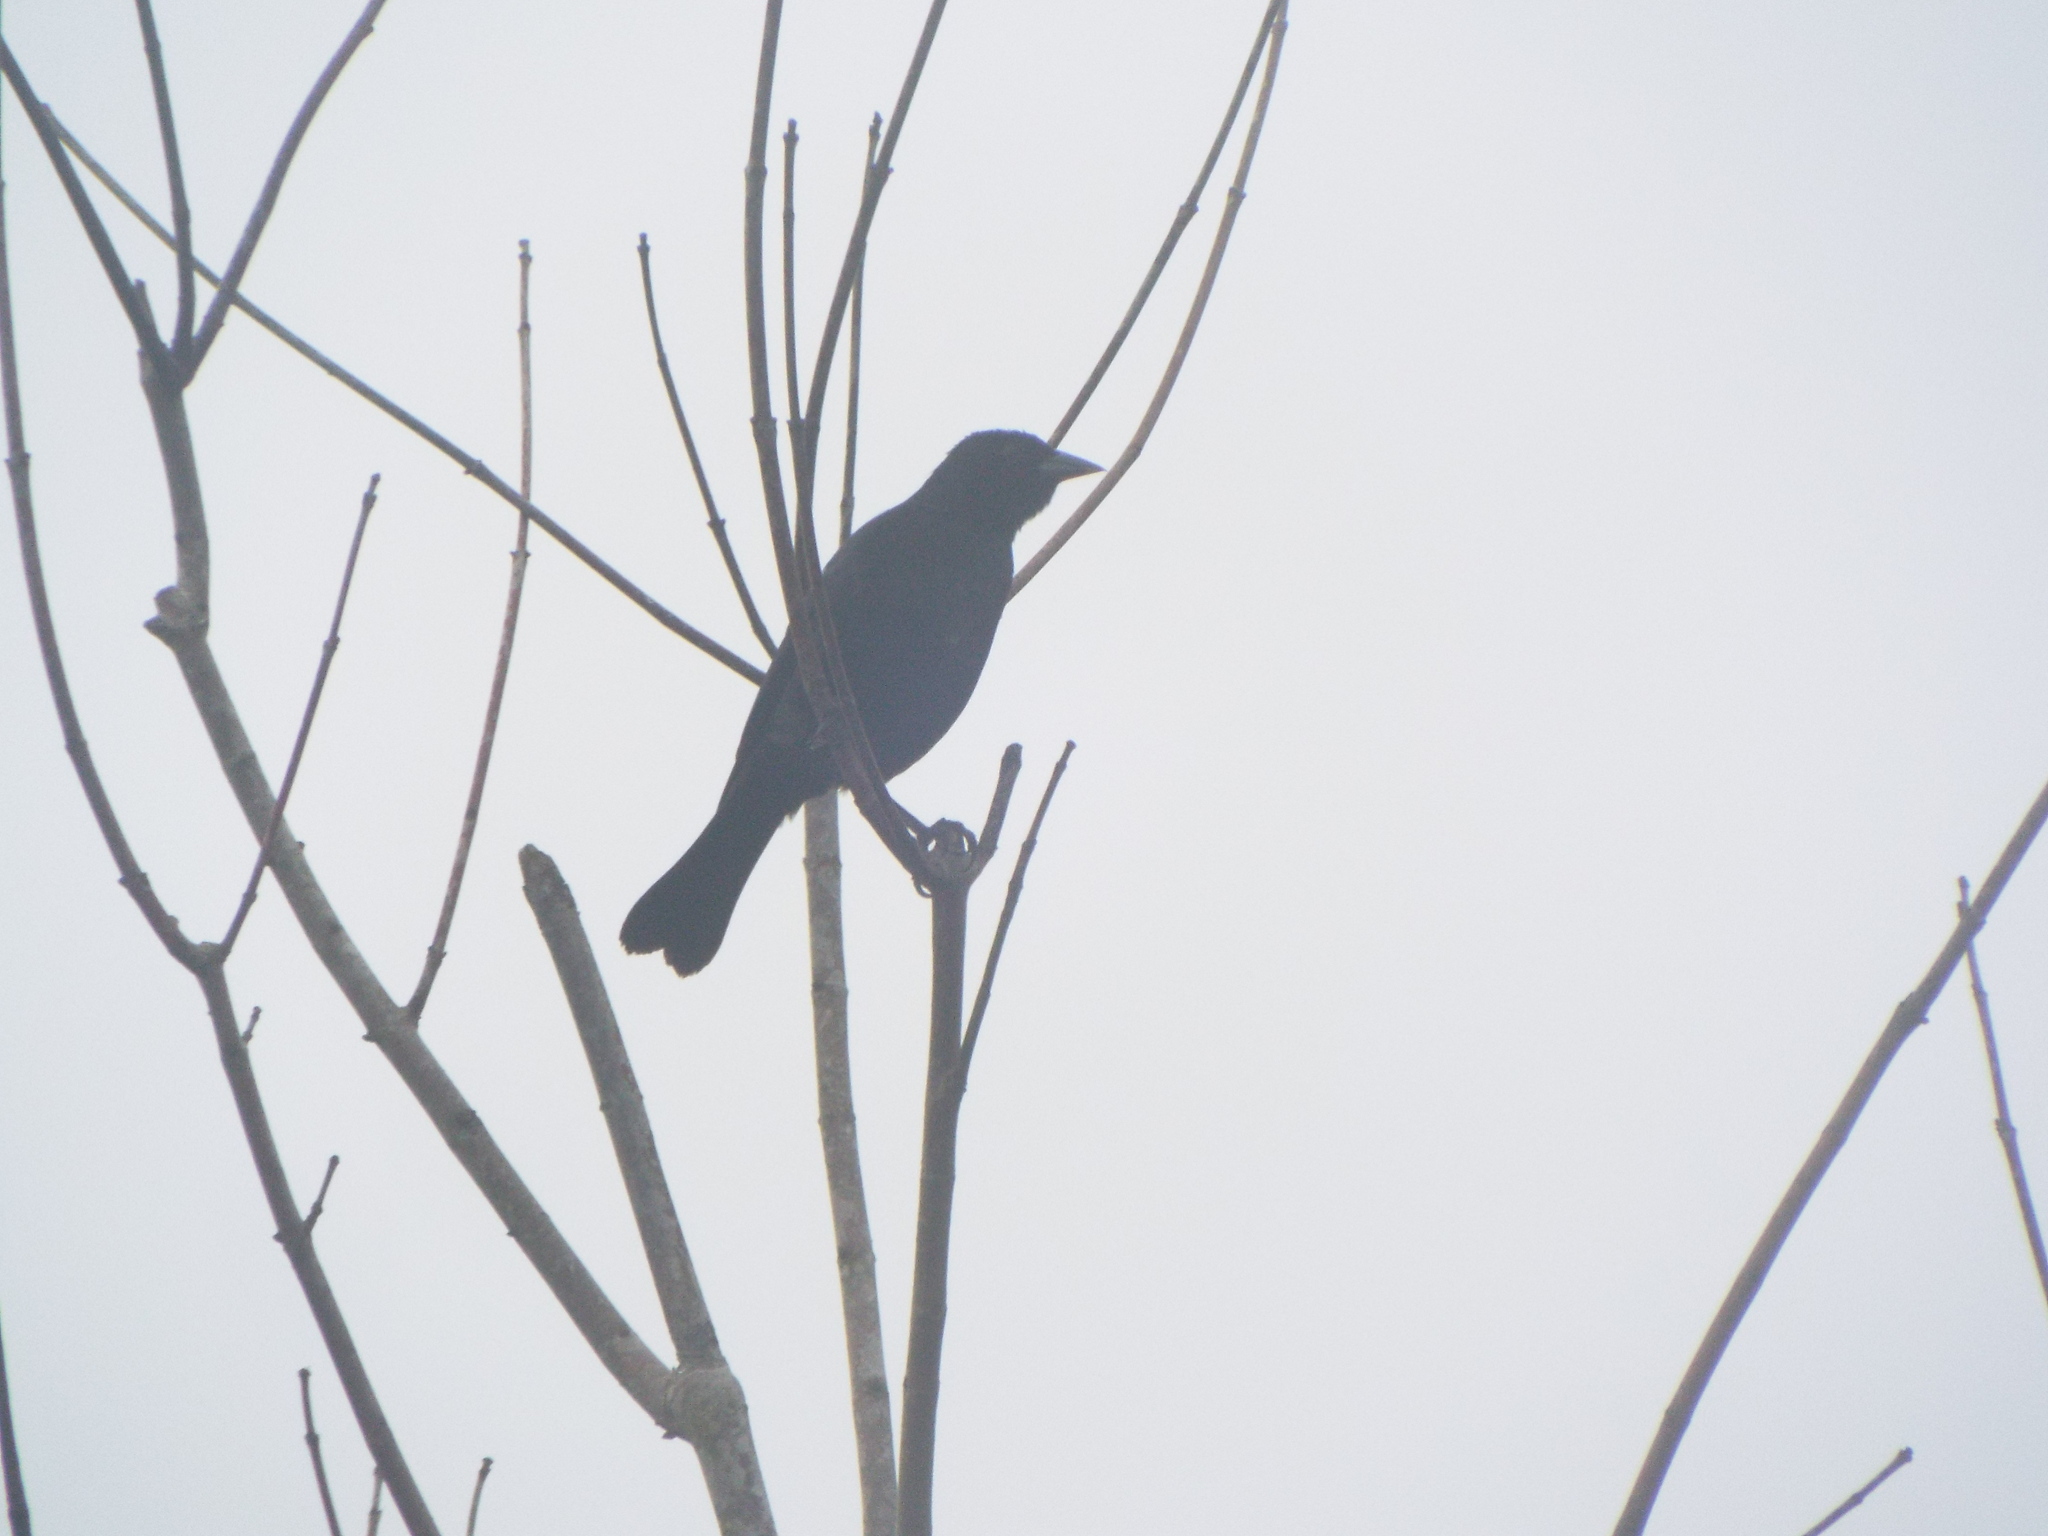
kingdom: Animalia
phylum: Chordata
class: Aves
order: Passeriformes
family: Icteridae
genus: Molothrus
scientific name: Molothrus bonariensis
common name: Shiny cowbird
